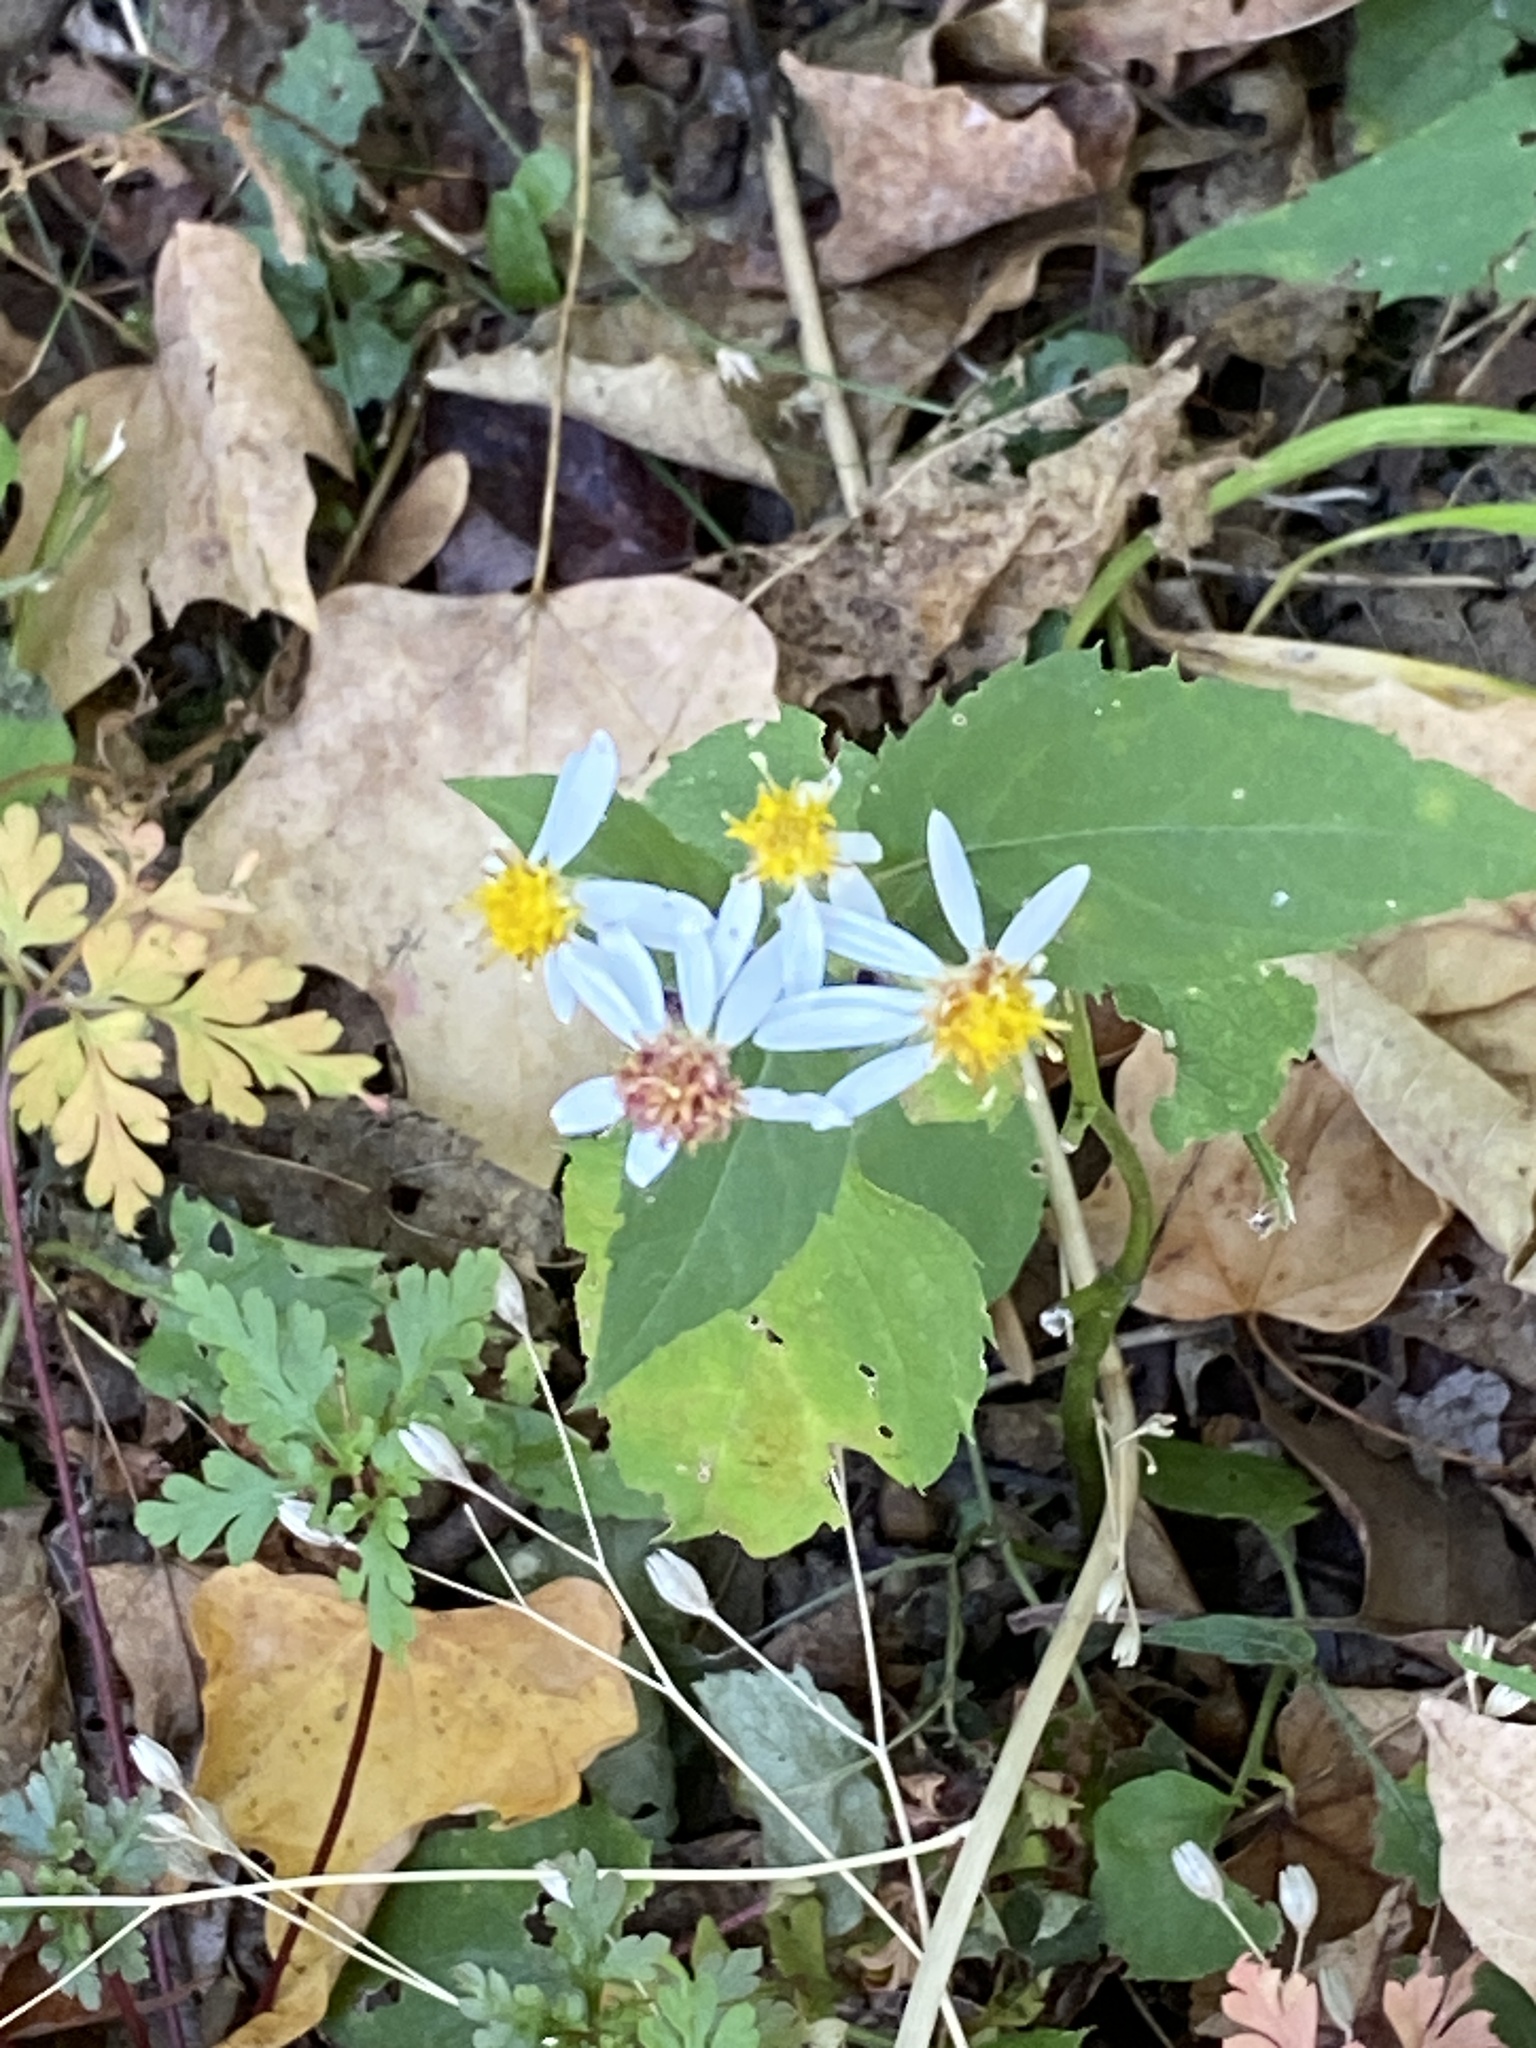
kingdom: Plantae
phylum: Tracheophyta
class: Magnoliopsida
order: Asterales
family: Asteraceae
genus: Eurybia
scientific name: Eurybia divaricata
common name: White wood aster
